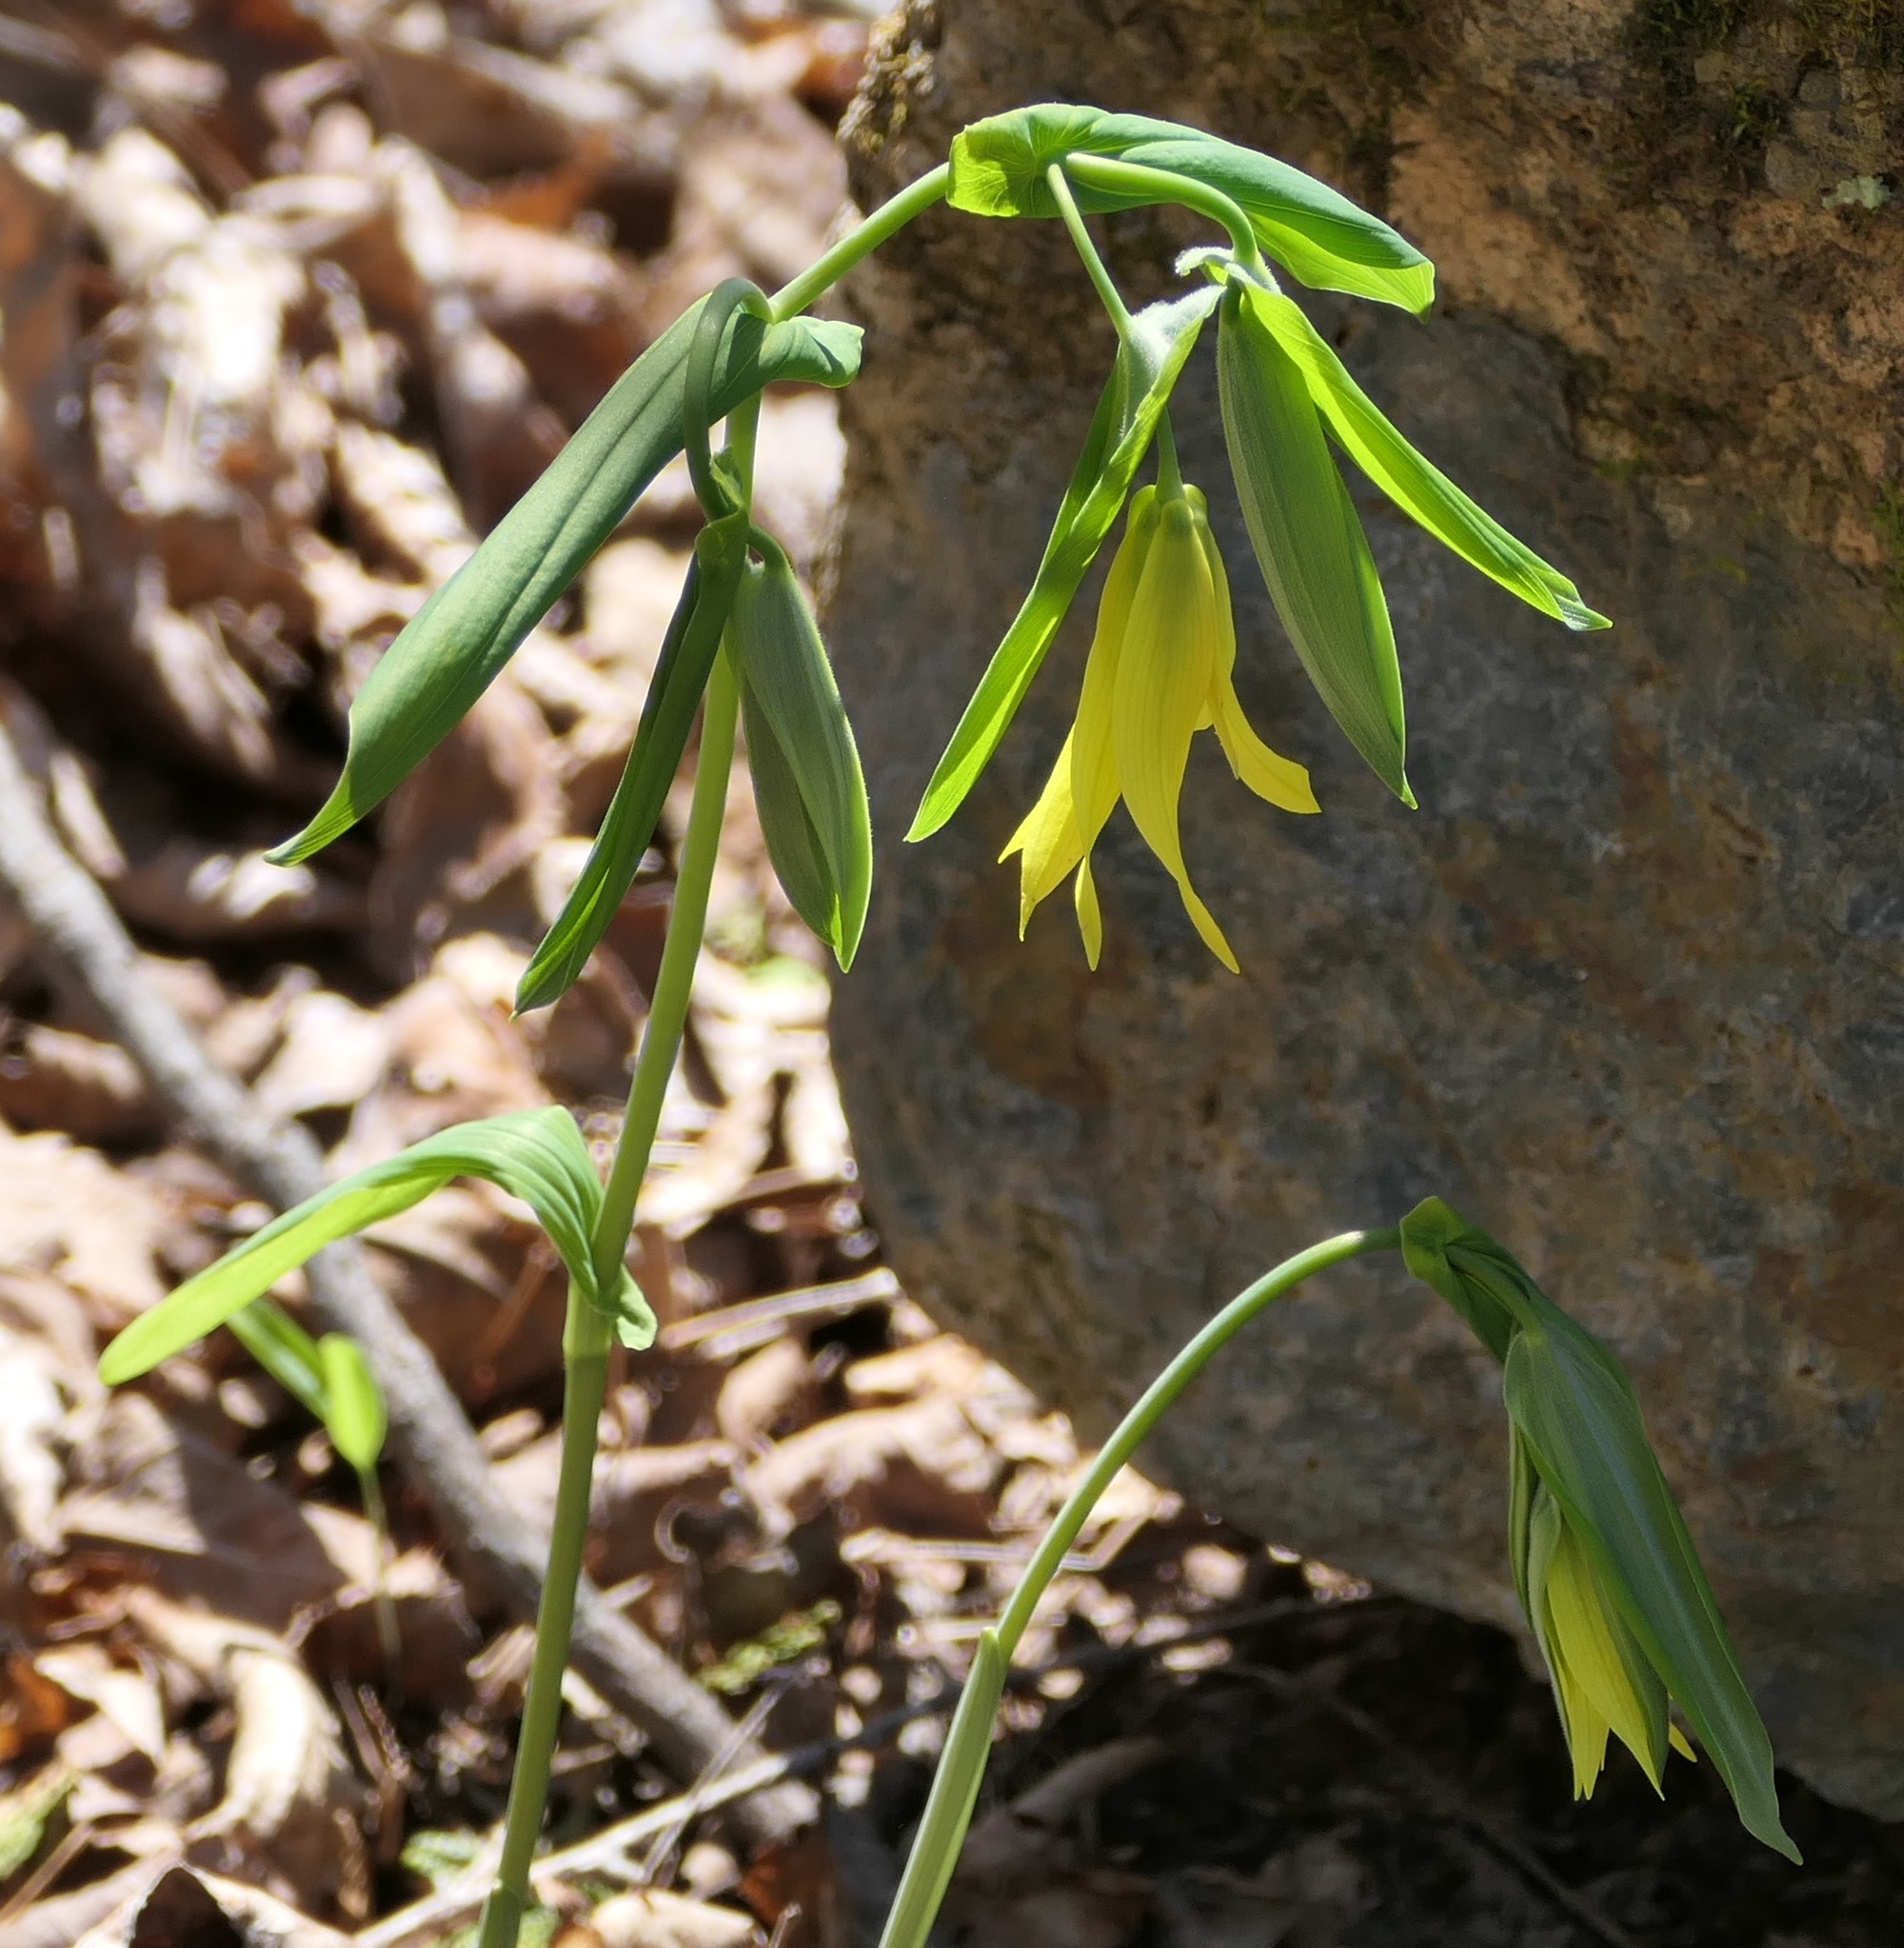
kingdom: Plantae
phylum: Tracheophyta
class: Liliopsida
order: Liliales
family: Colchicaceae
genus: Uvularia
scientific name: Uvularia grandiflora
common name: Bellwort
